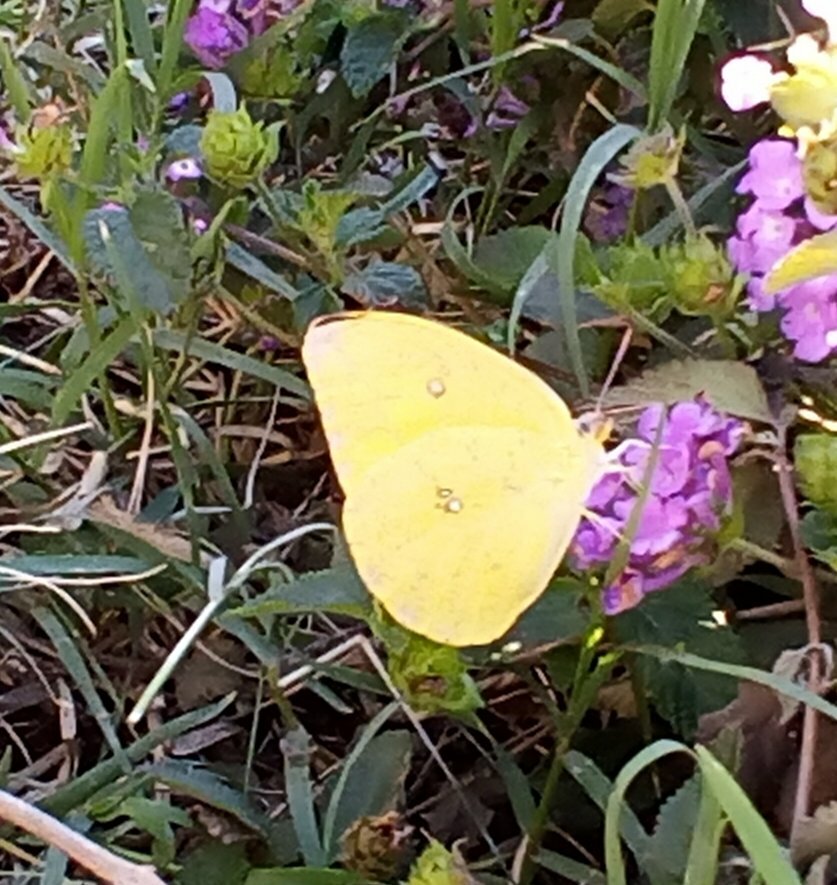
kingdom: Animalia
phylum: Arthropoda
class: Insecta
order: Lepidoptera
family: Pieridae
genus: Phoebis
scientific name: Phoebis agarithe
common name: Large orange sulphur
